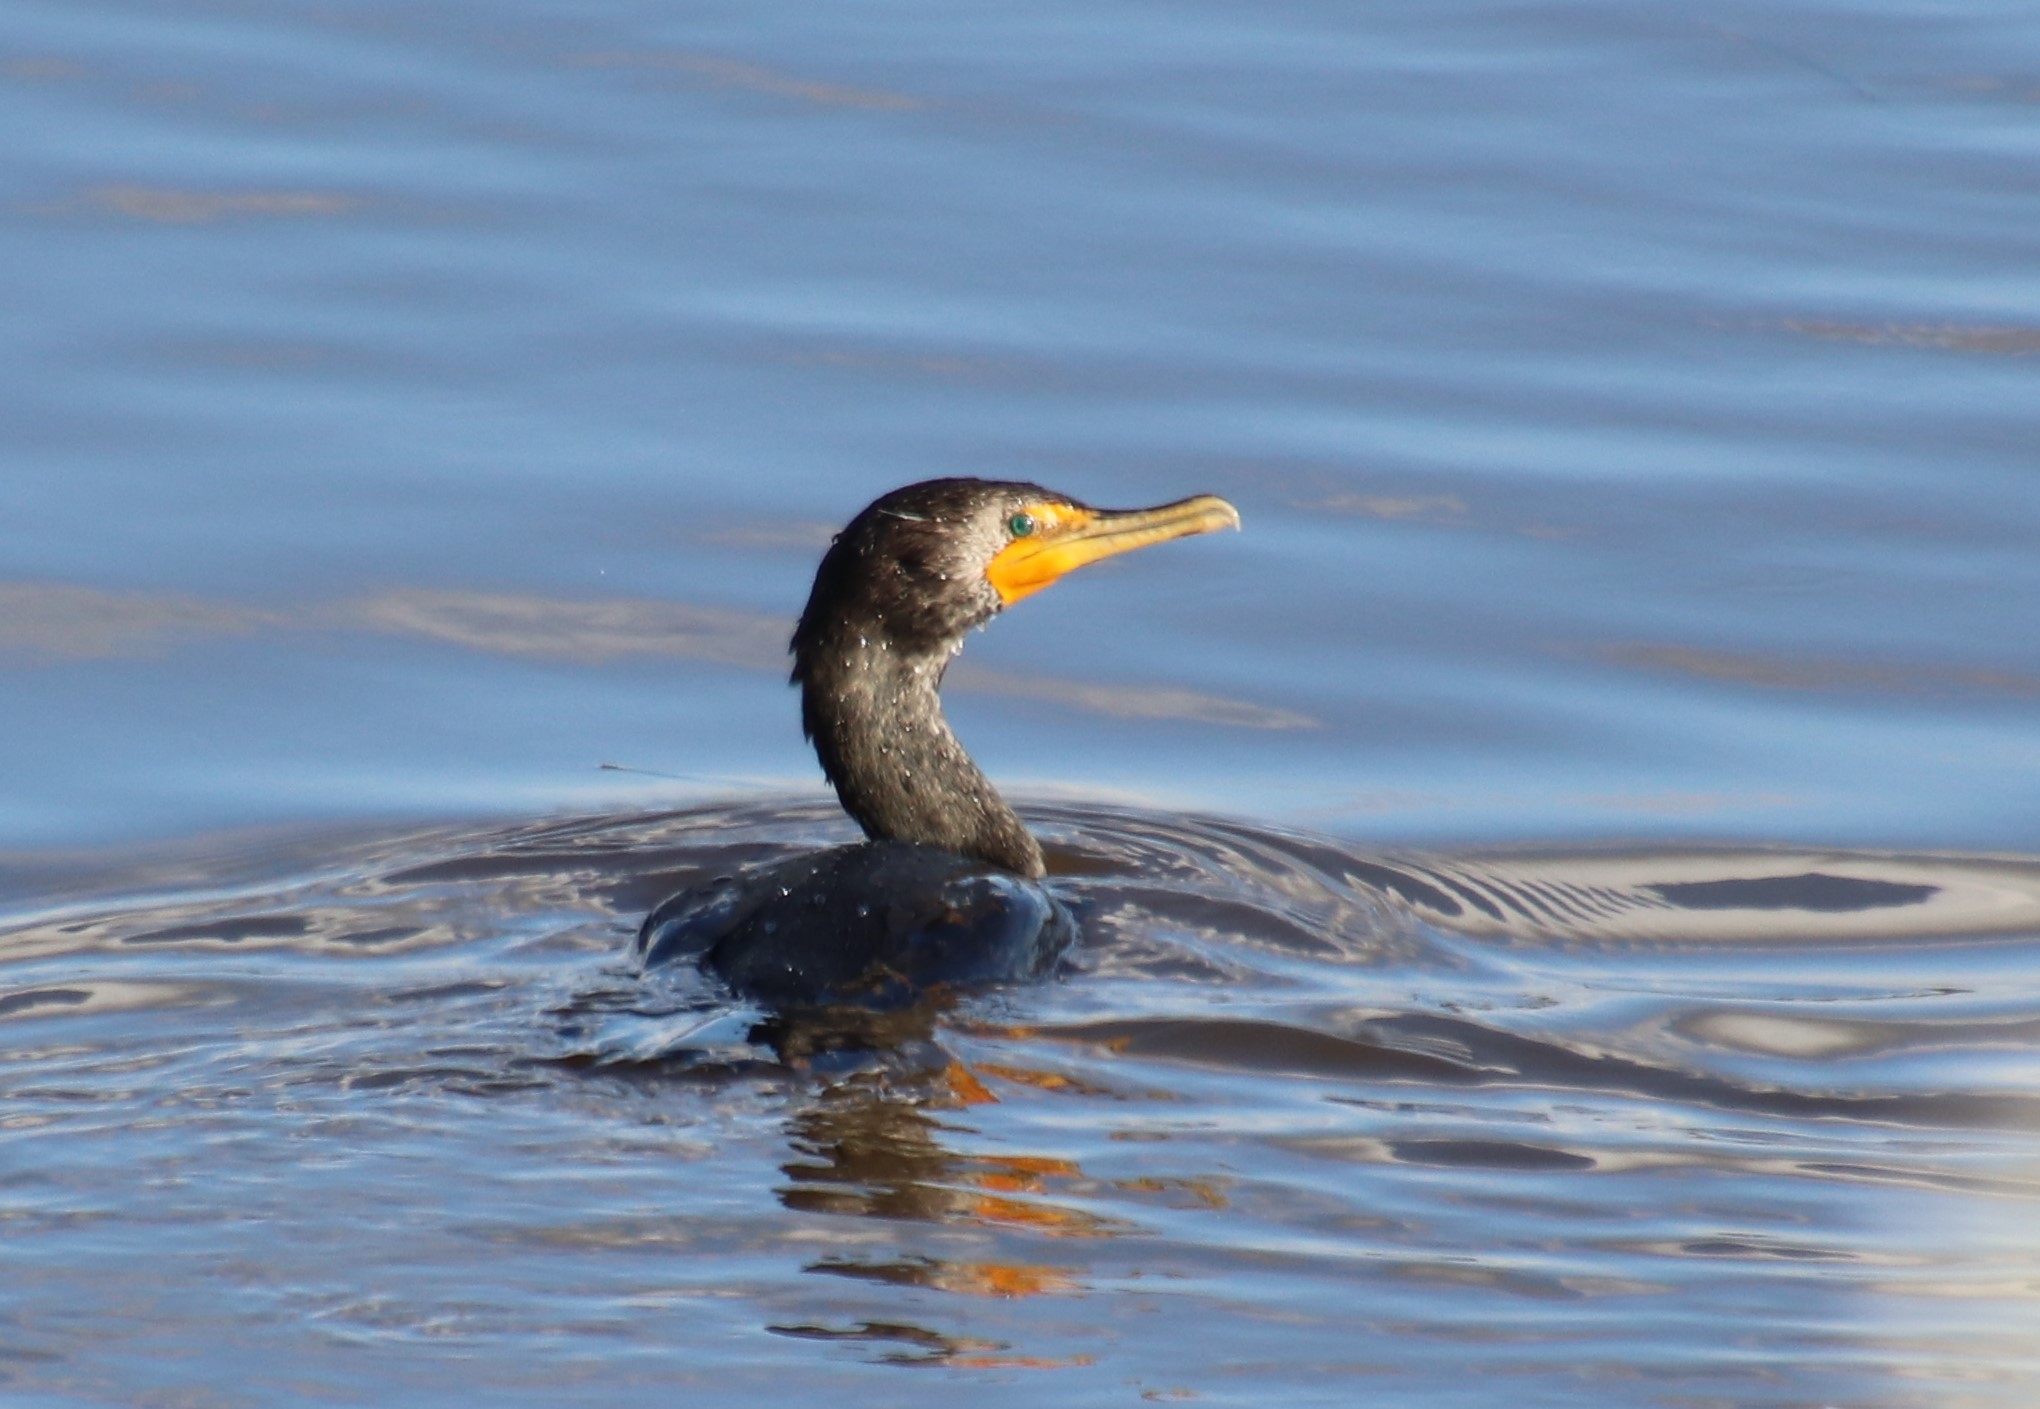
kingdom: Animalia
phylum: Chordata
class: Aves
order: Suliformes
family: Phalacrocoracidae
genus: Phalacrocorax
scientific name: Phalacrocorax auritus
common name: Double-crested cormorant
